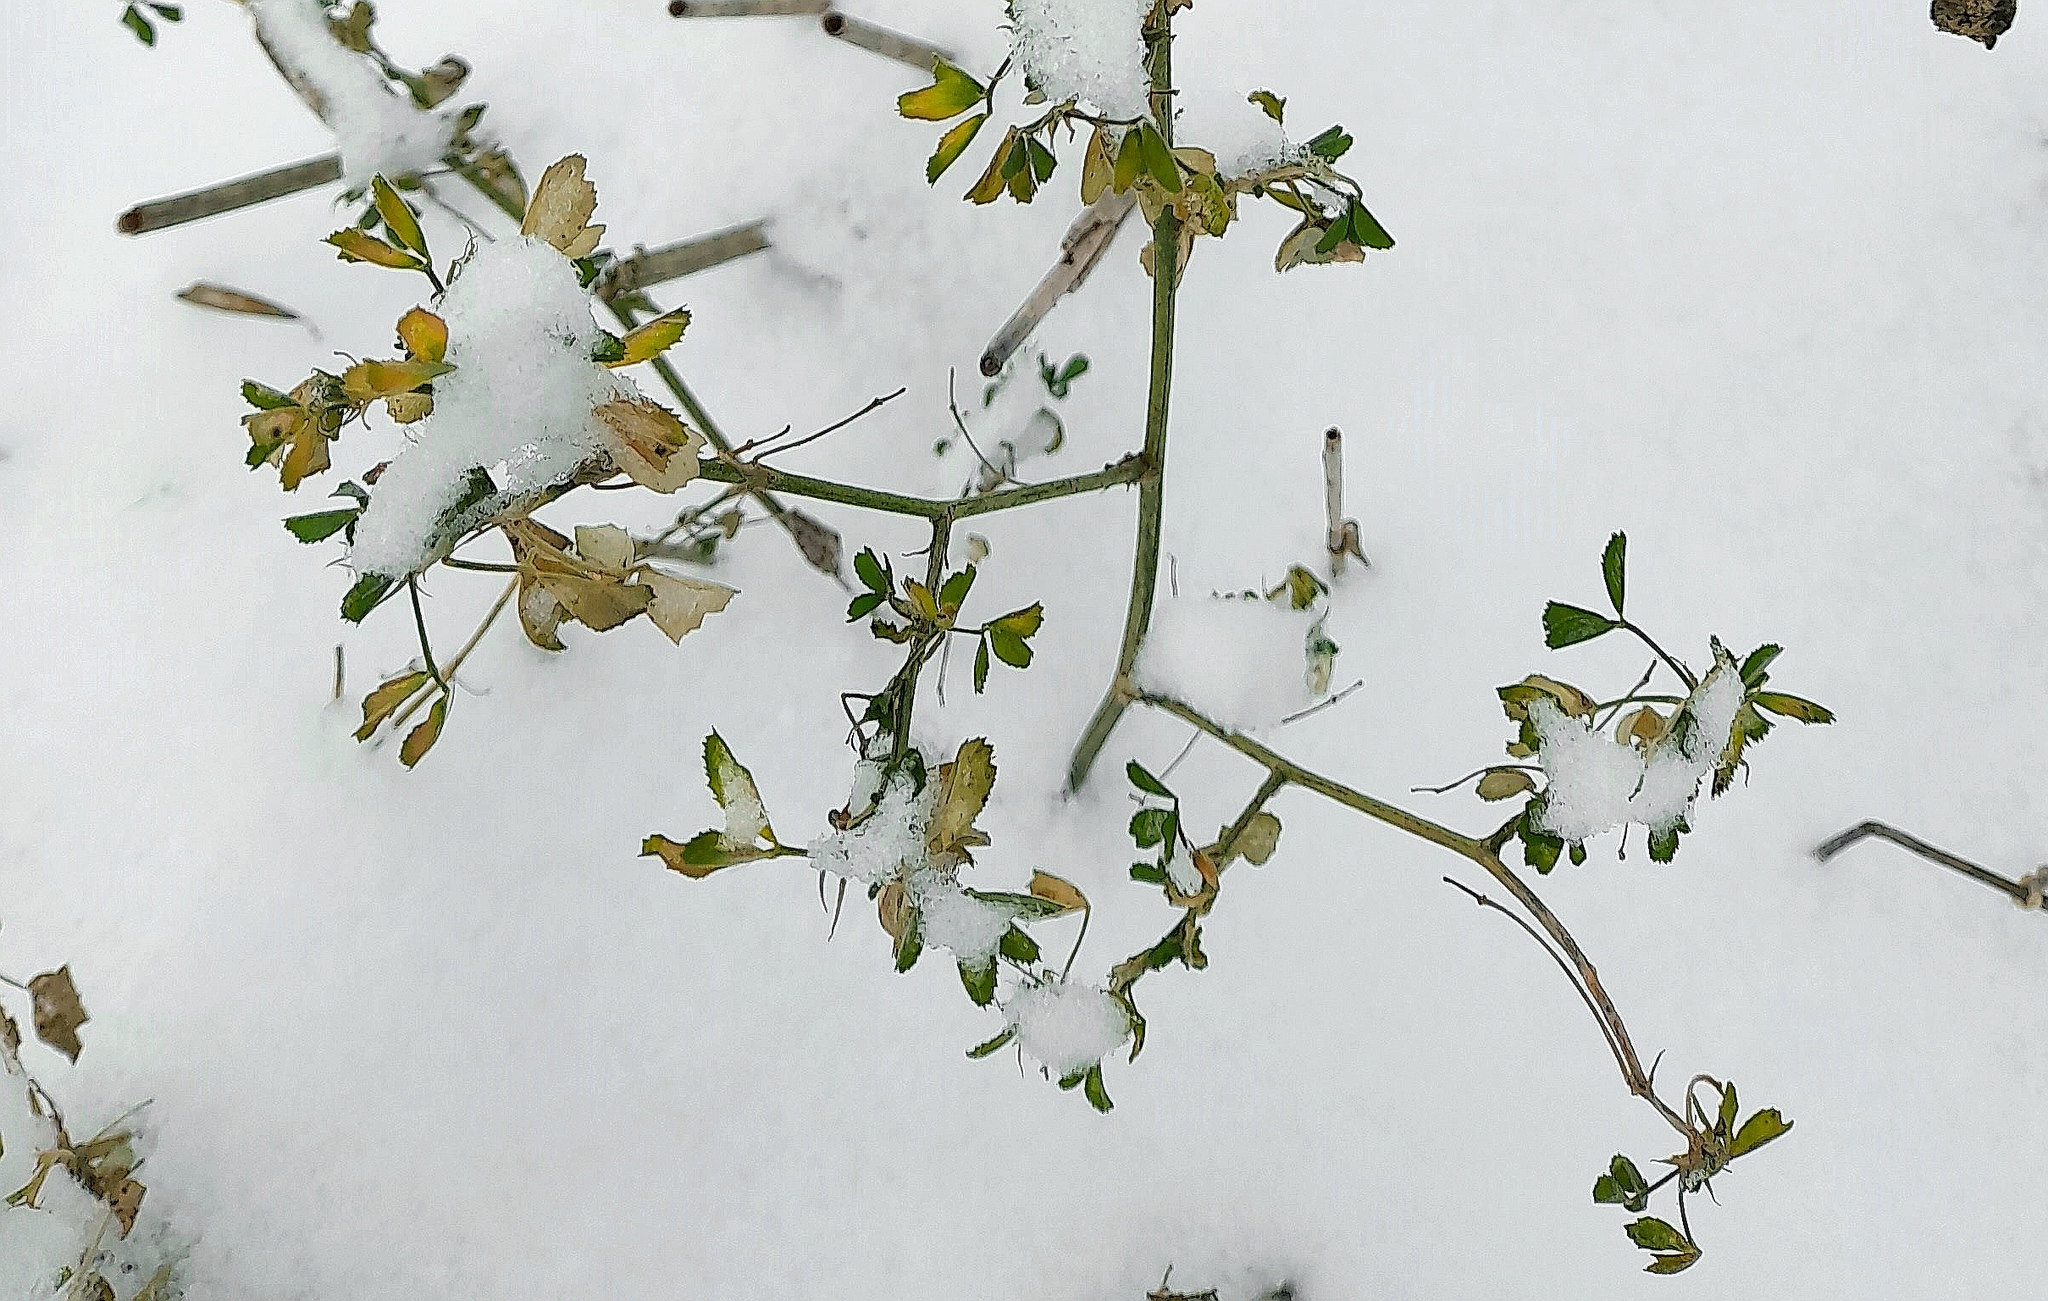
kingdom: Plantae
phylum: Tracheophyta
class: Magnoliopsida
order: Fabales
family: Fabaceae
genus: Melilotus
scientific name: Melilotus
